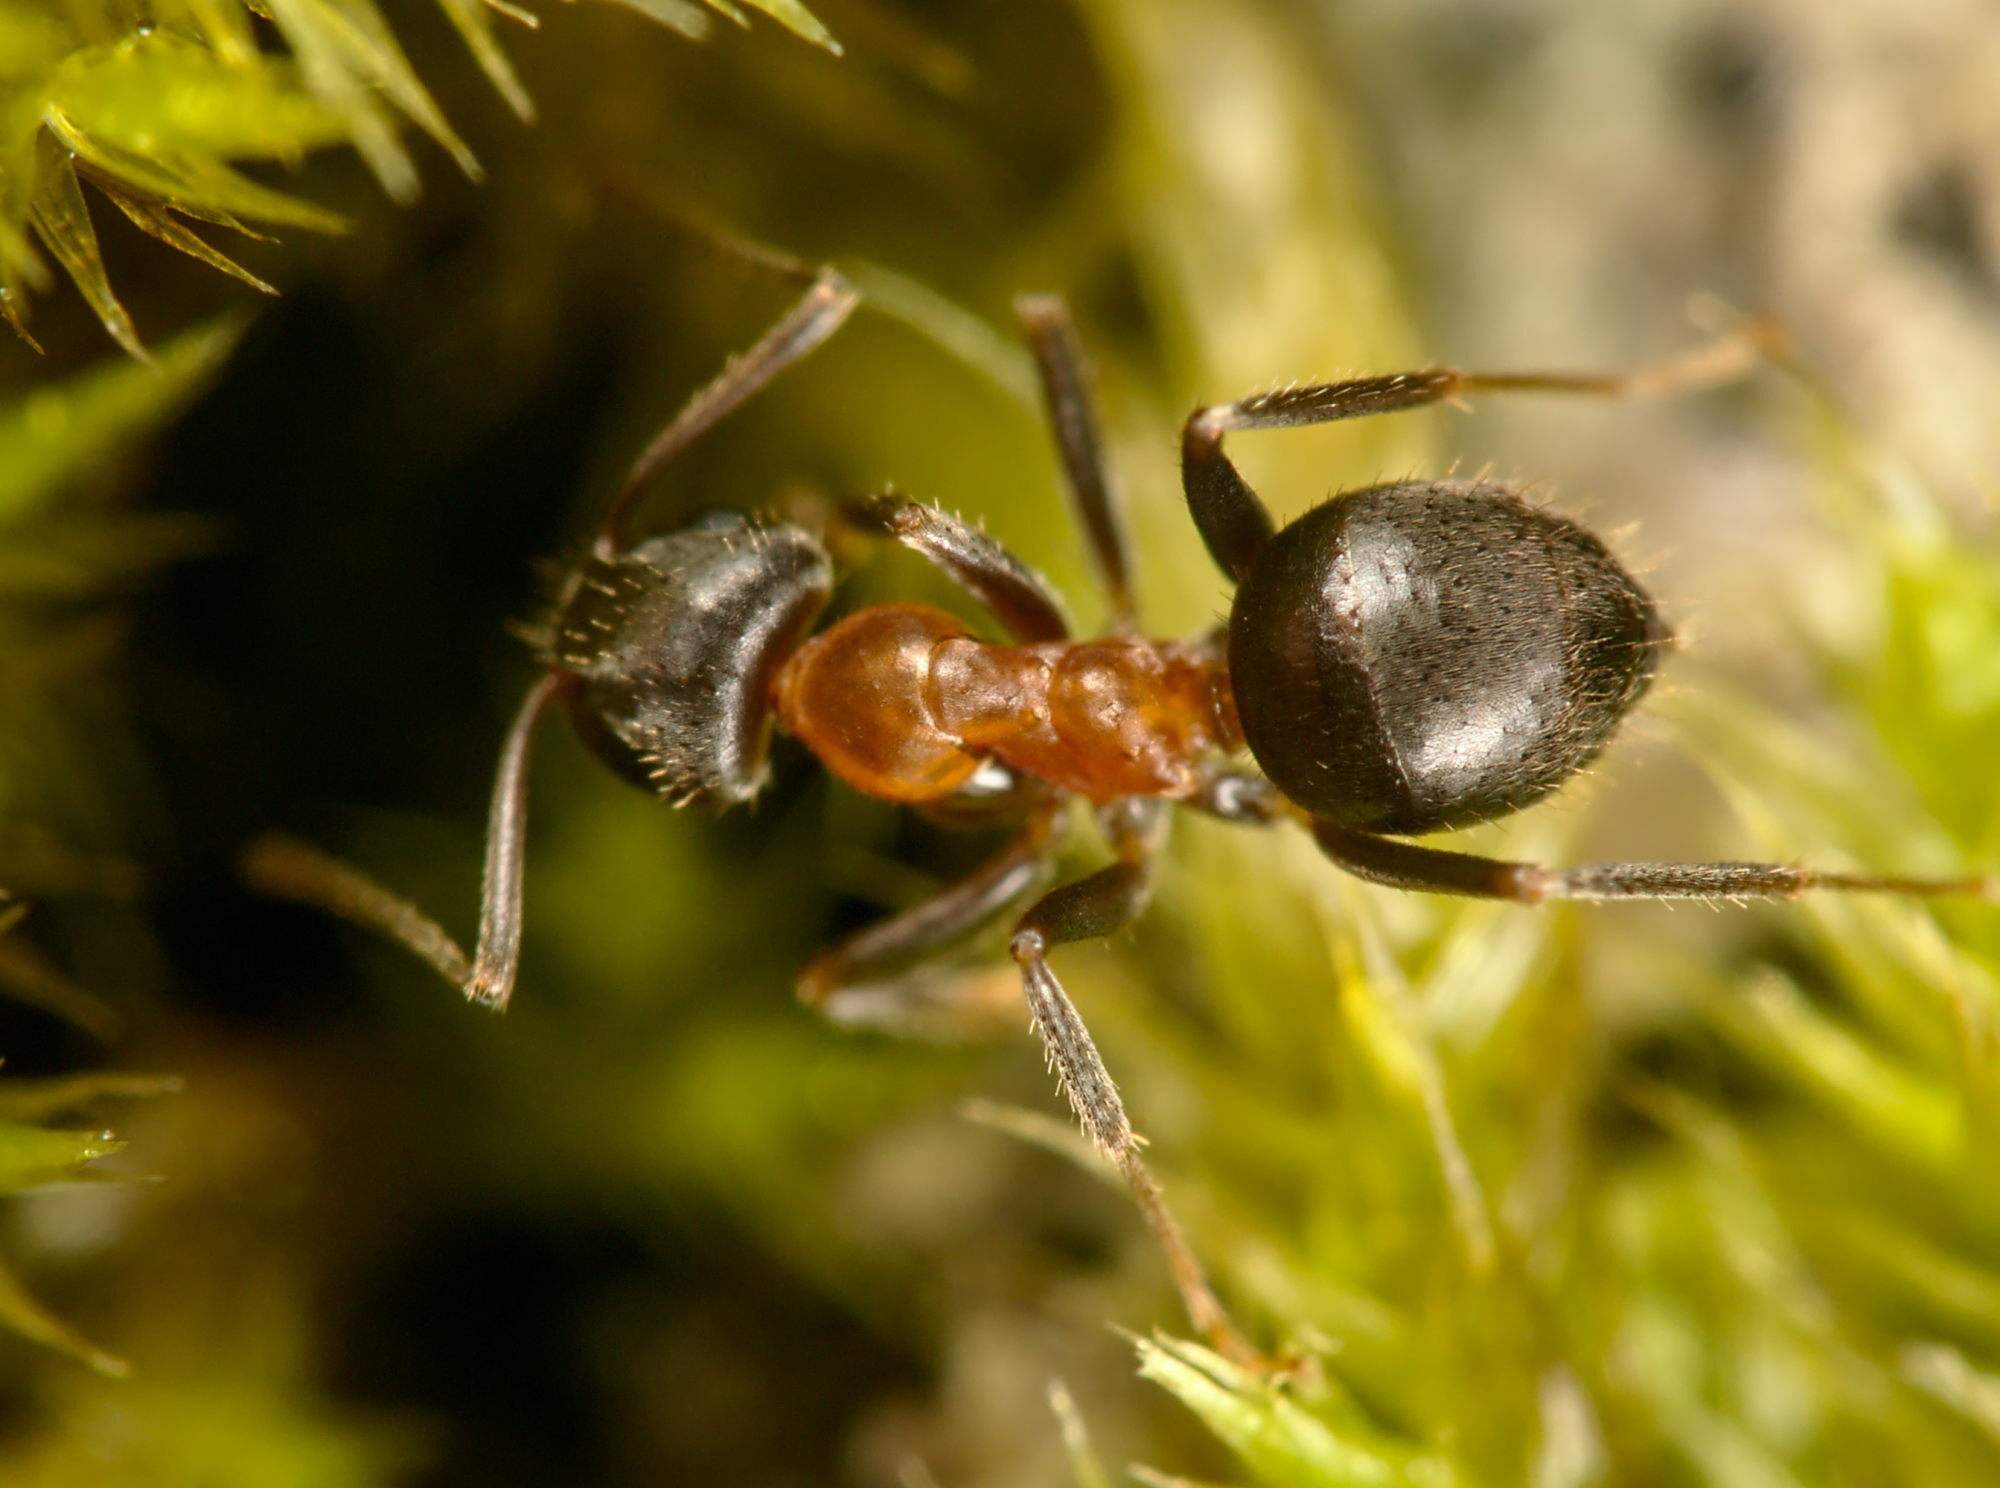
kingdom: Animalia
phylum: Arthropoda
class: Insecta
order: Hymenoptera
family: Formicidae
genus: Lasius
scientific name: Lasius emarginatus
